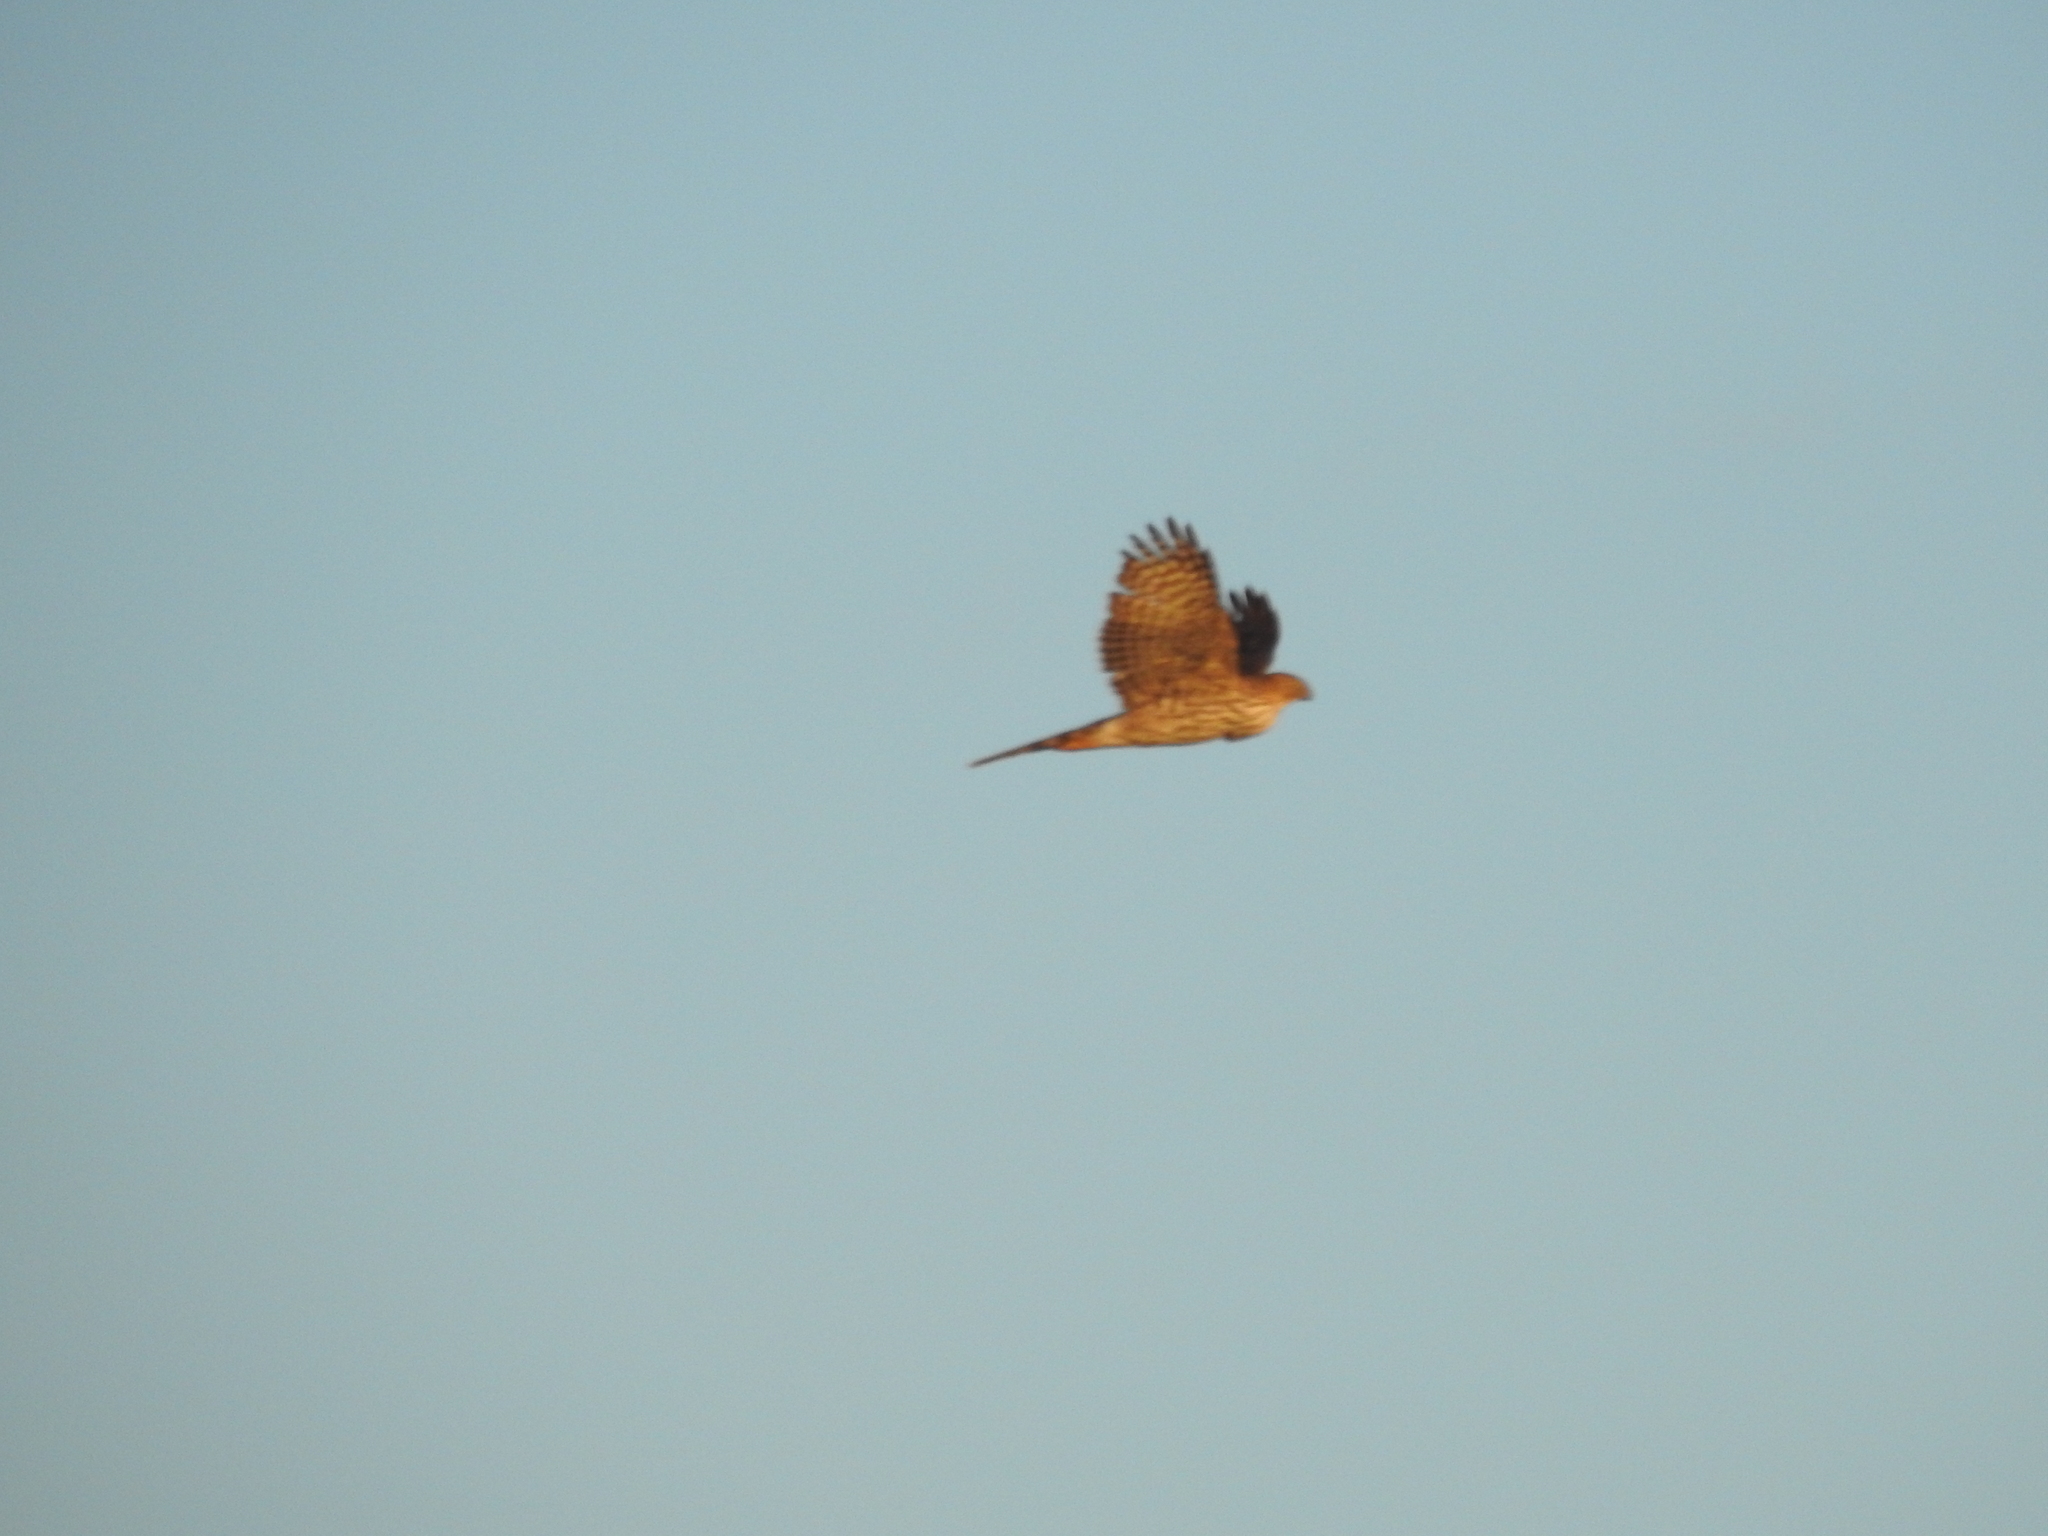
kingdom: Animalia
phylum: Chordata
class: Aves
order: Accipitriformes
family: Accipitridae
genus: Accipiter
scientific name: Accipiter cooperii
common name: Cooper's hawk
